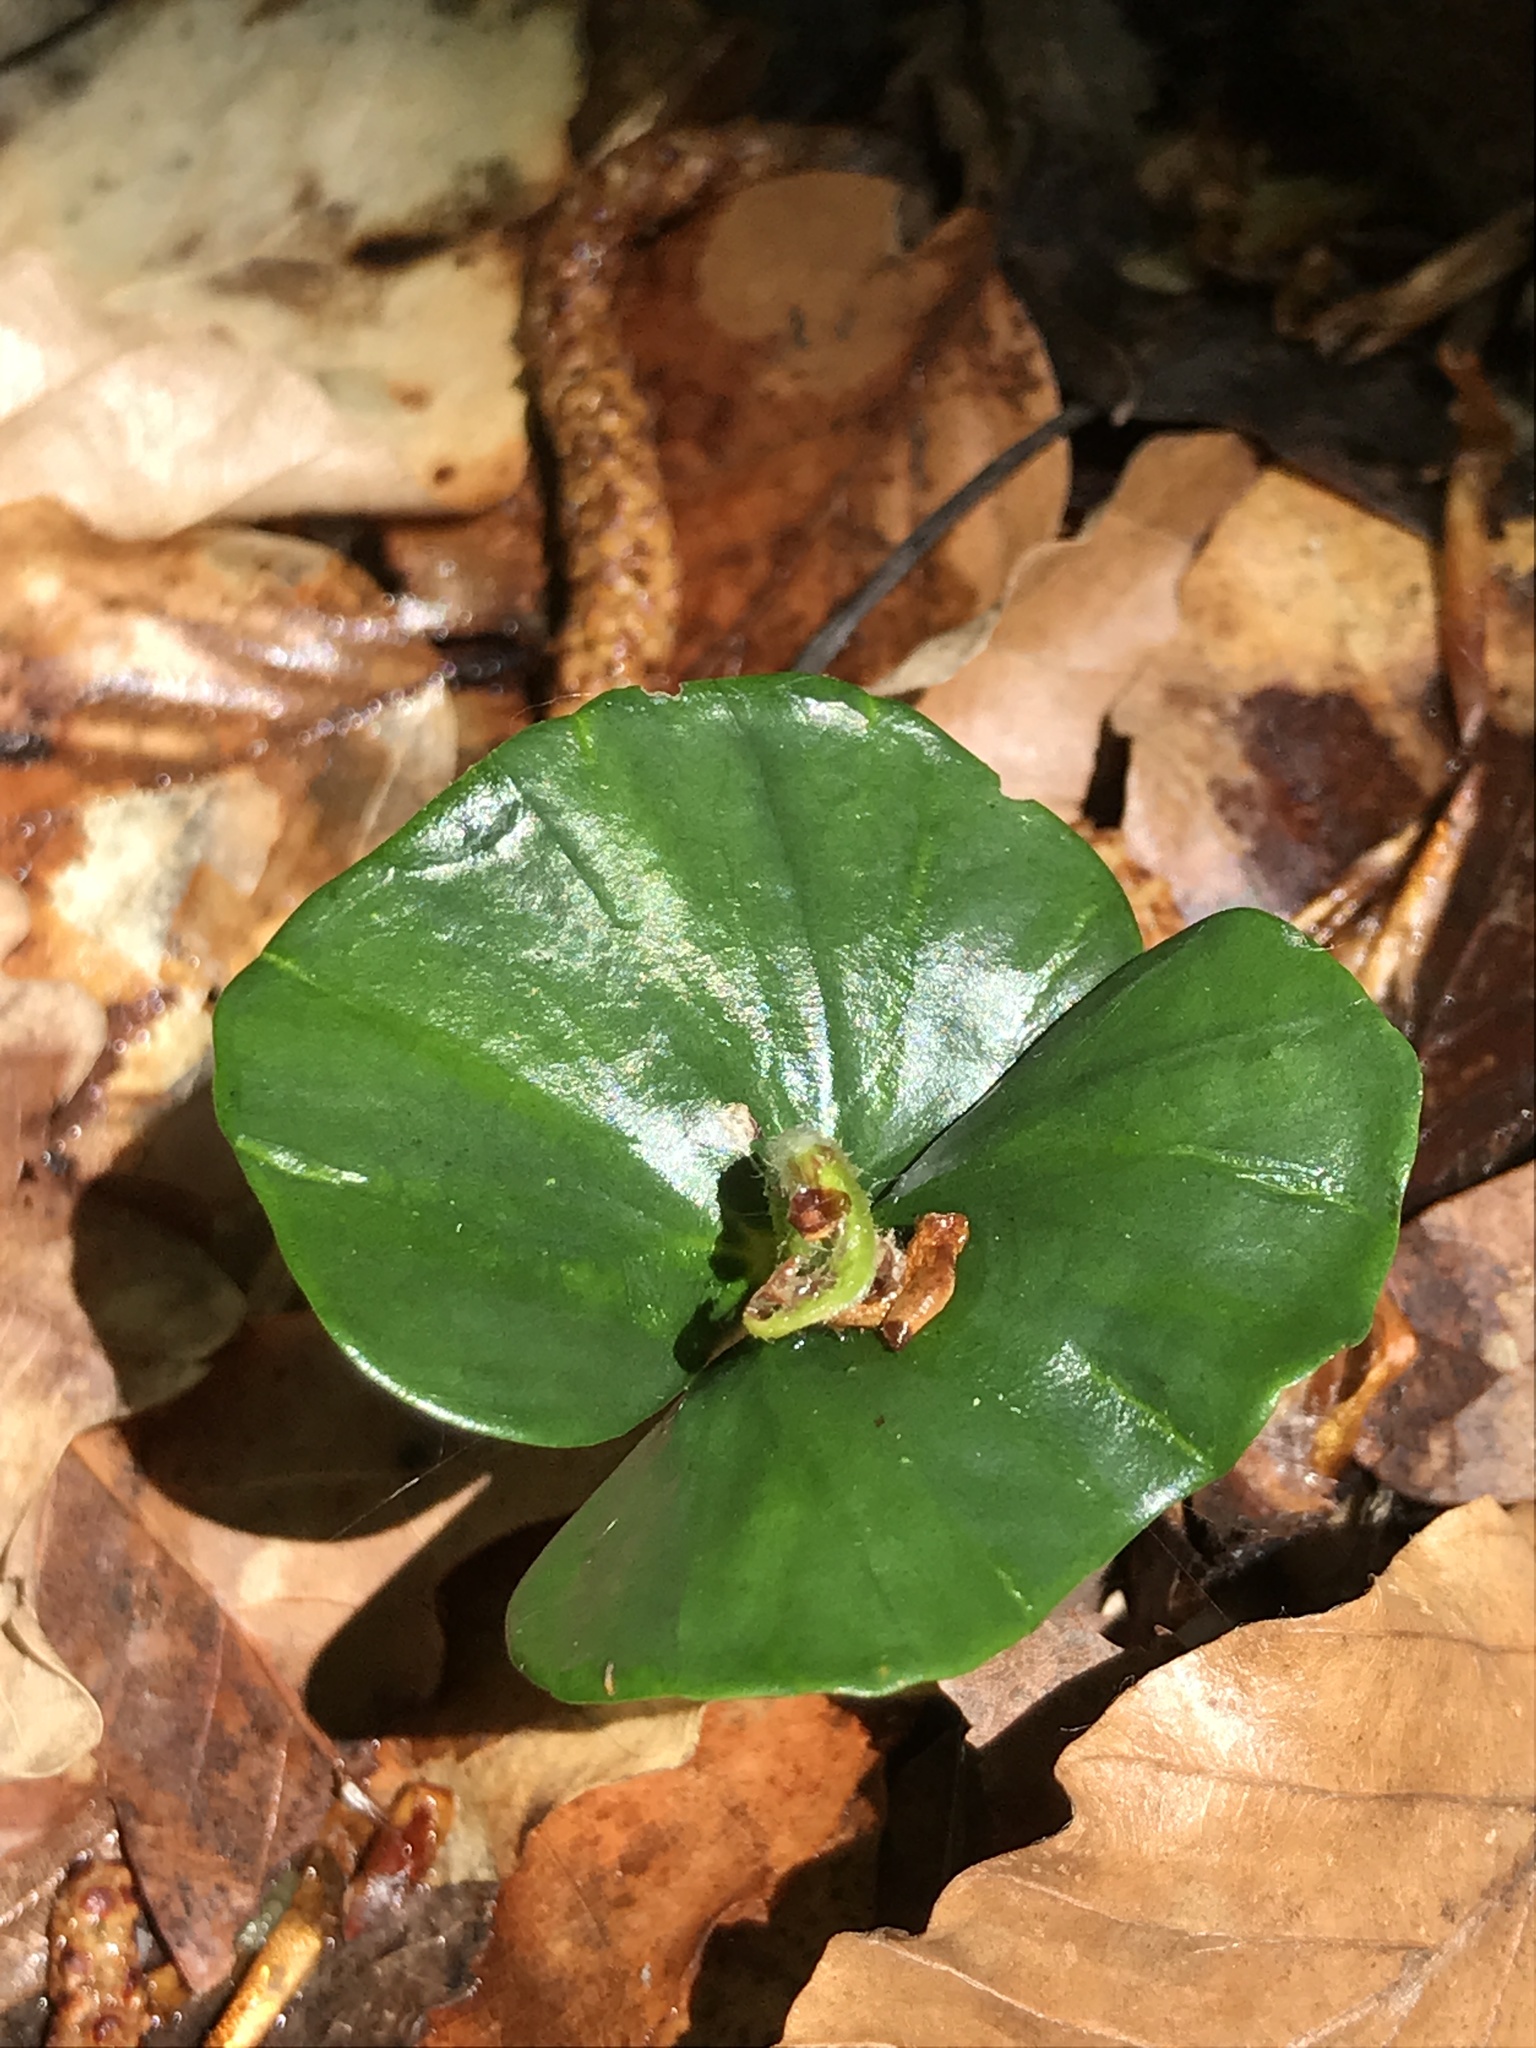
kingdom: Plantae
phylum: Tracheophyta
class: Magnoliopsida
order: Fagales
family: Fagaceae
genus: Fagus
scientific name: Fagus sylvatica
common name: Beech
